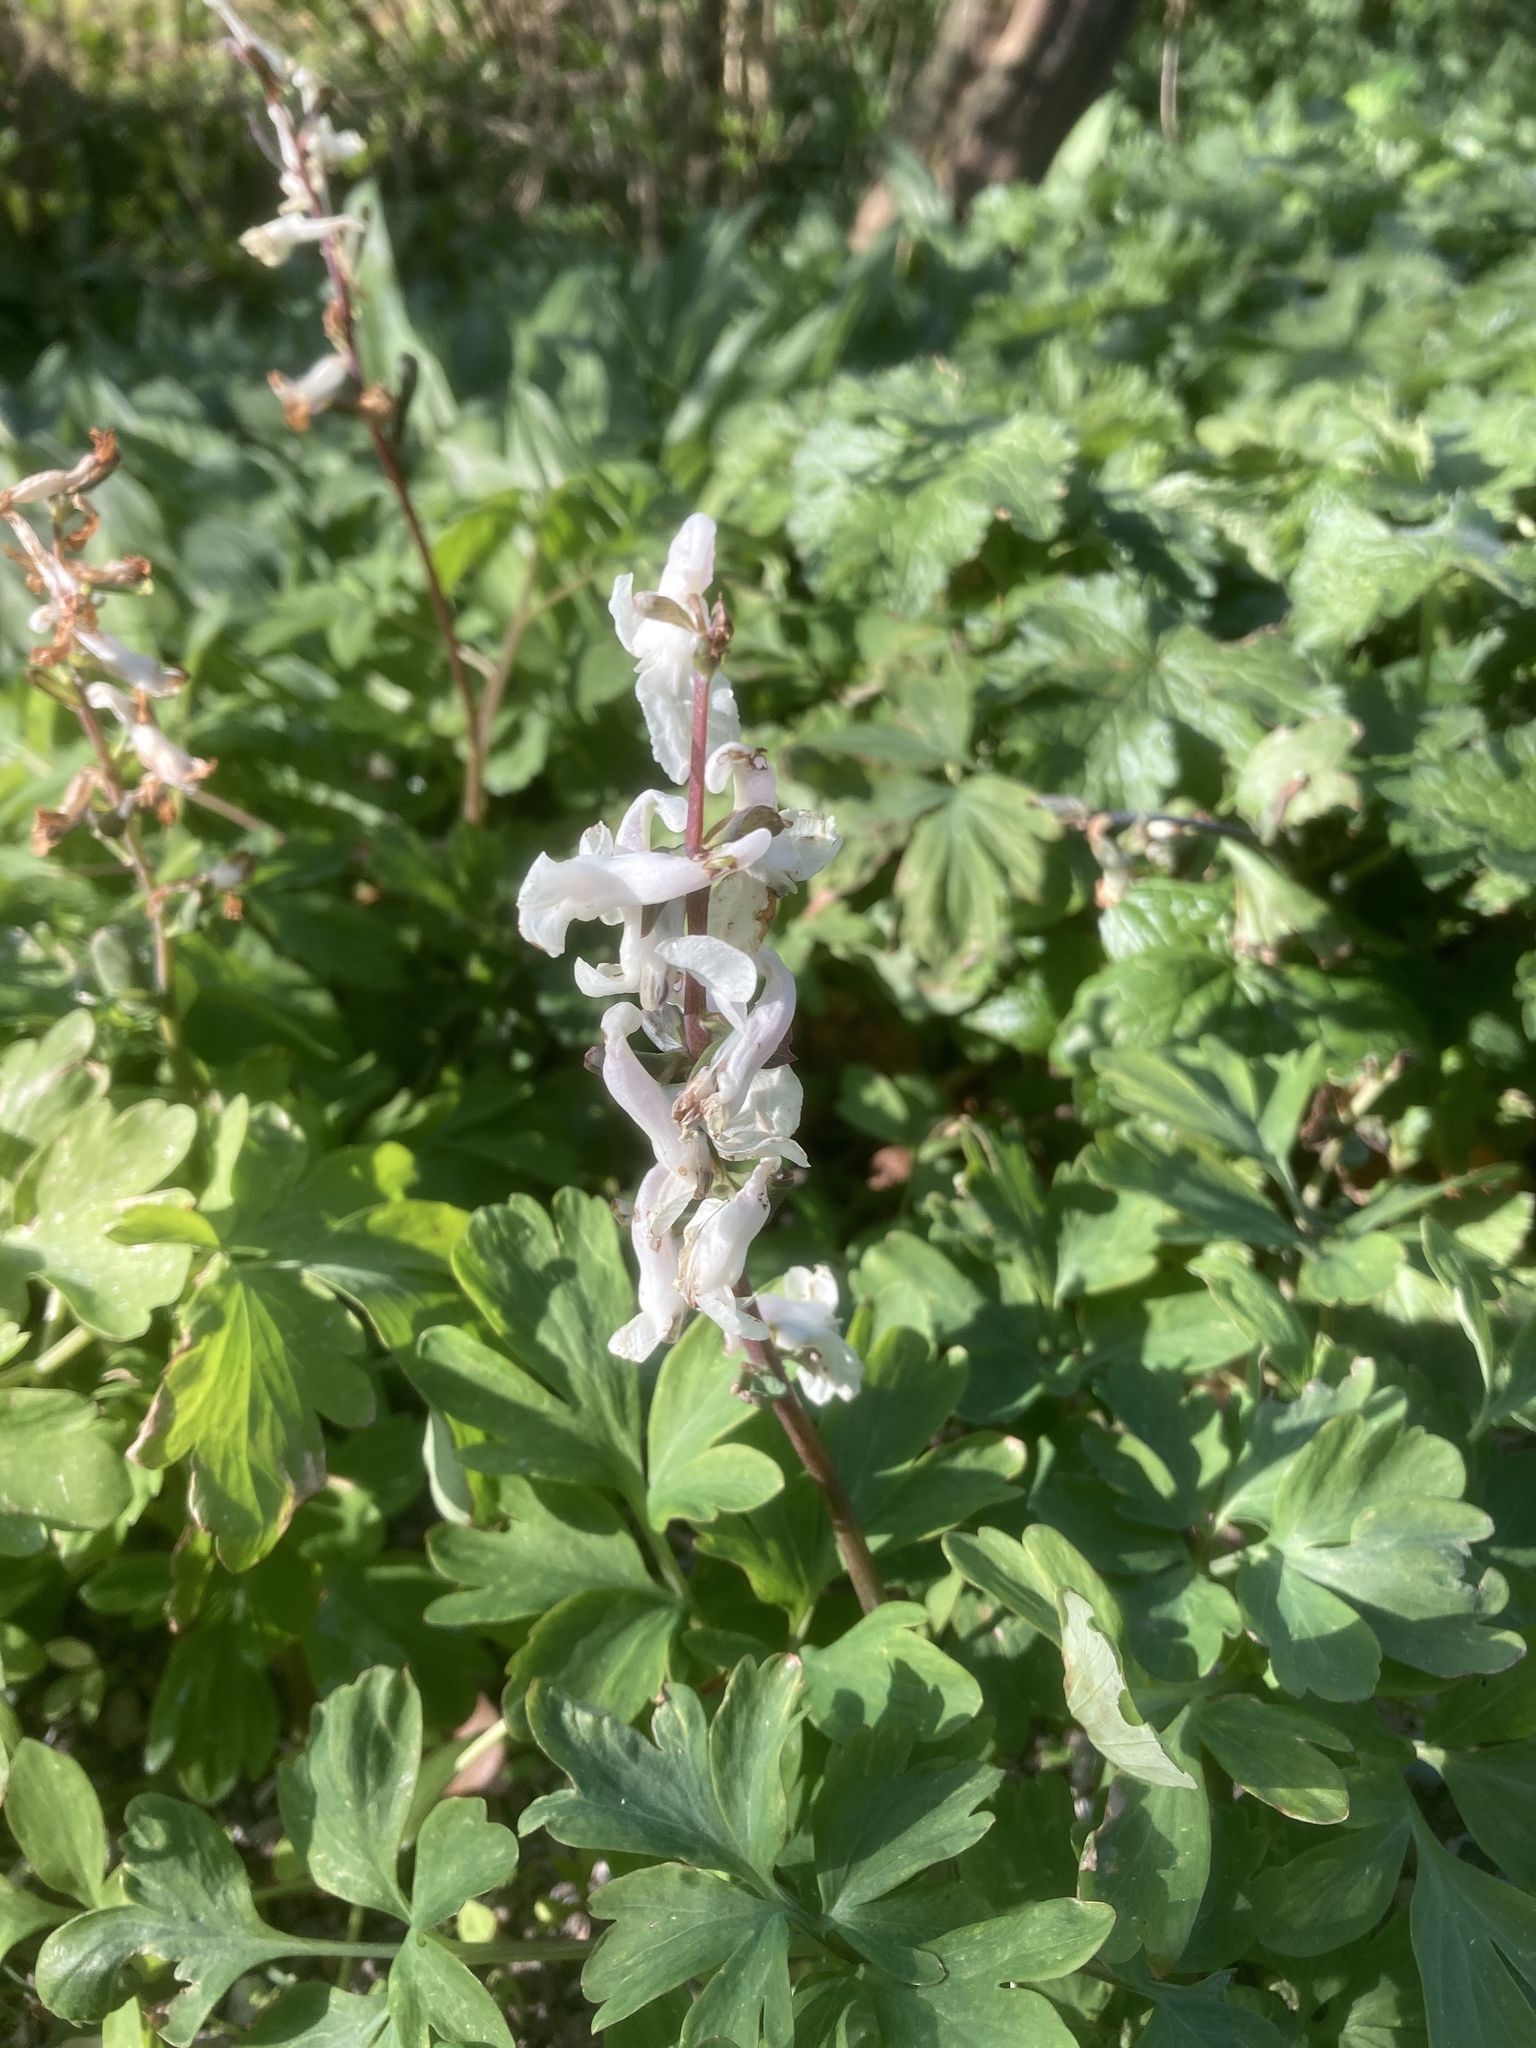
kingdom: Plantae
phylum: Tracheophyta
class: Magnoliopsida
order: Ranunculales
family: Papaveraceae
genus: Corydalis
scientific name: Corydalis cava
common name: Hollowroot
